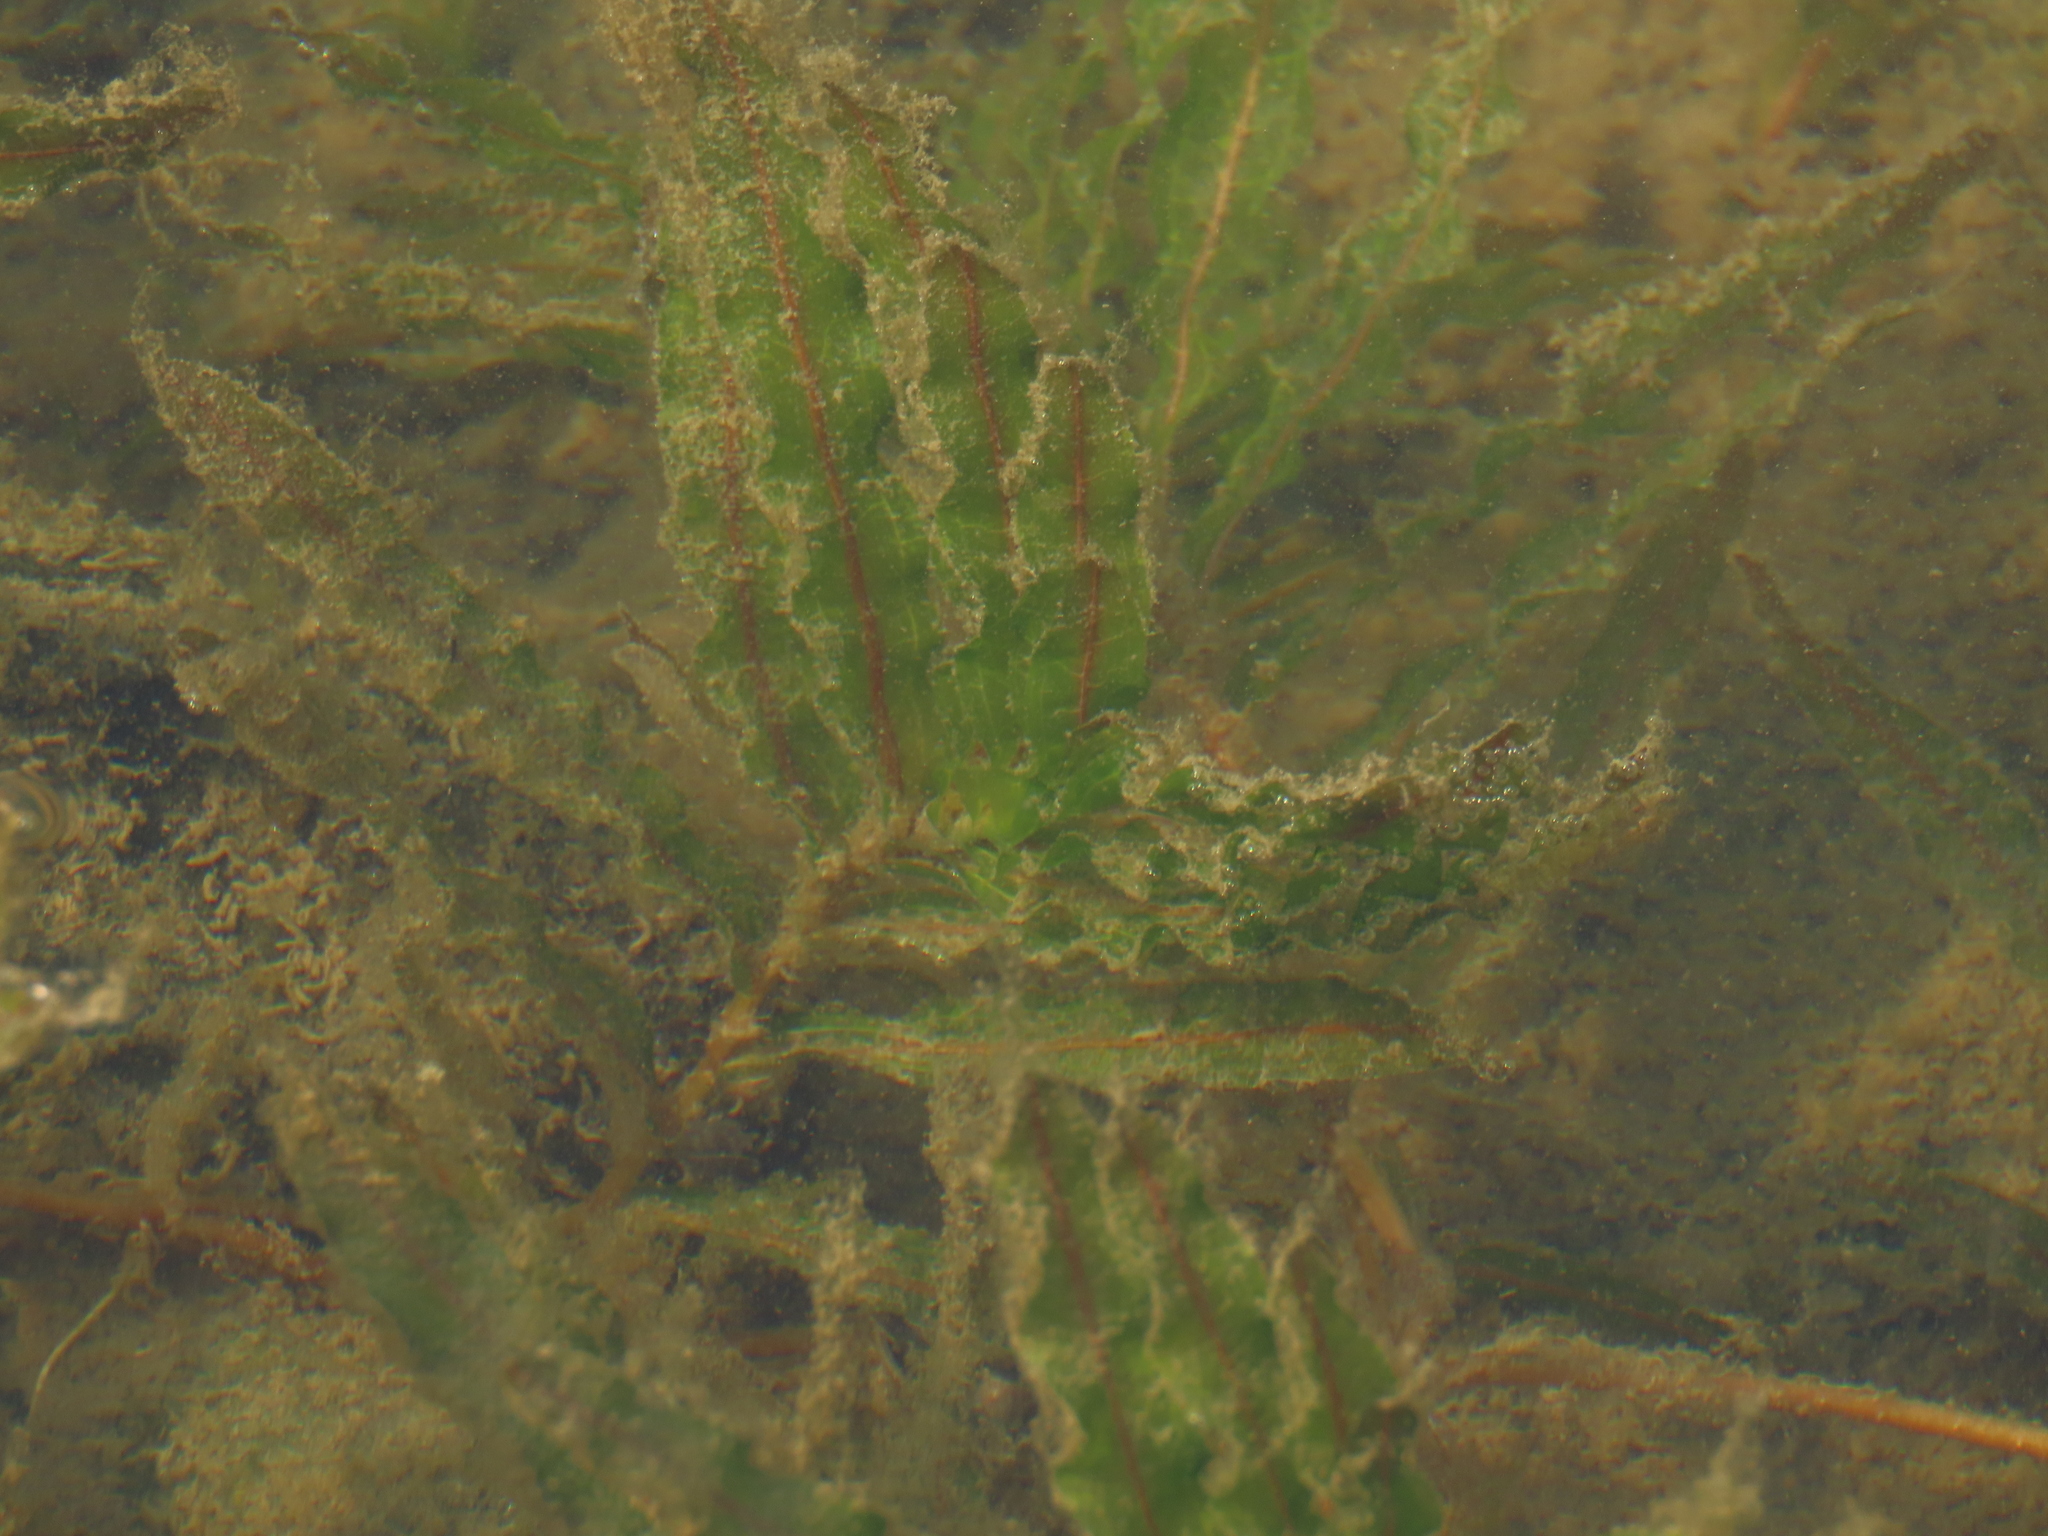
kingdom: Plantae
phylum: Tracheophyta
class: Liliopsida
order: Alismatales
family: Potamogetonaceae
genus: Potamogeton
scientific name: Potamogeton crispus
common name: Curled pondweed
